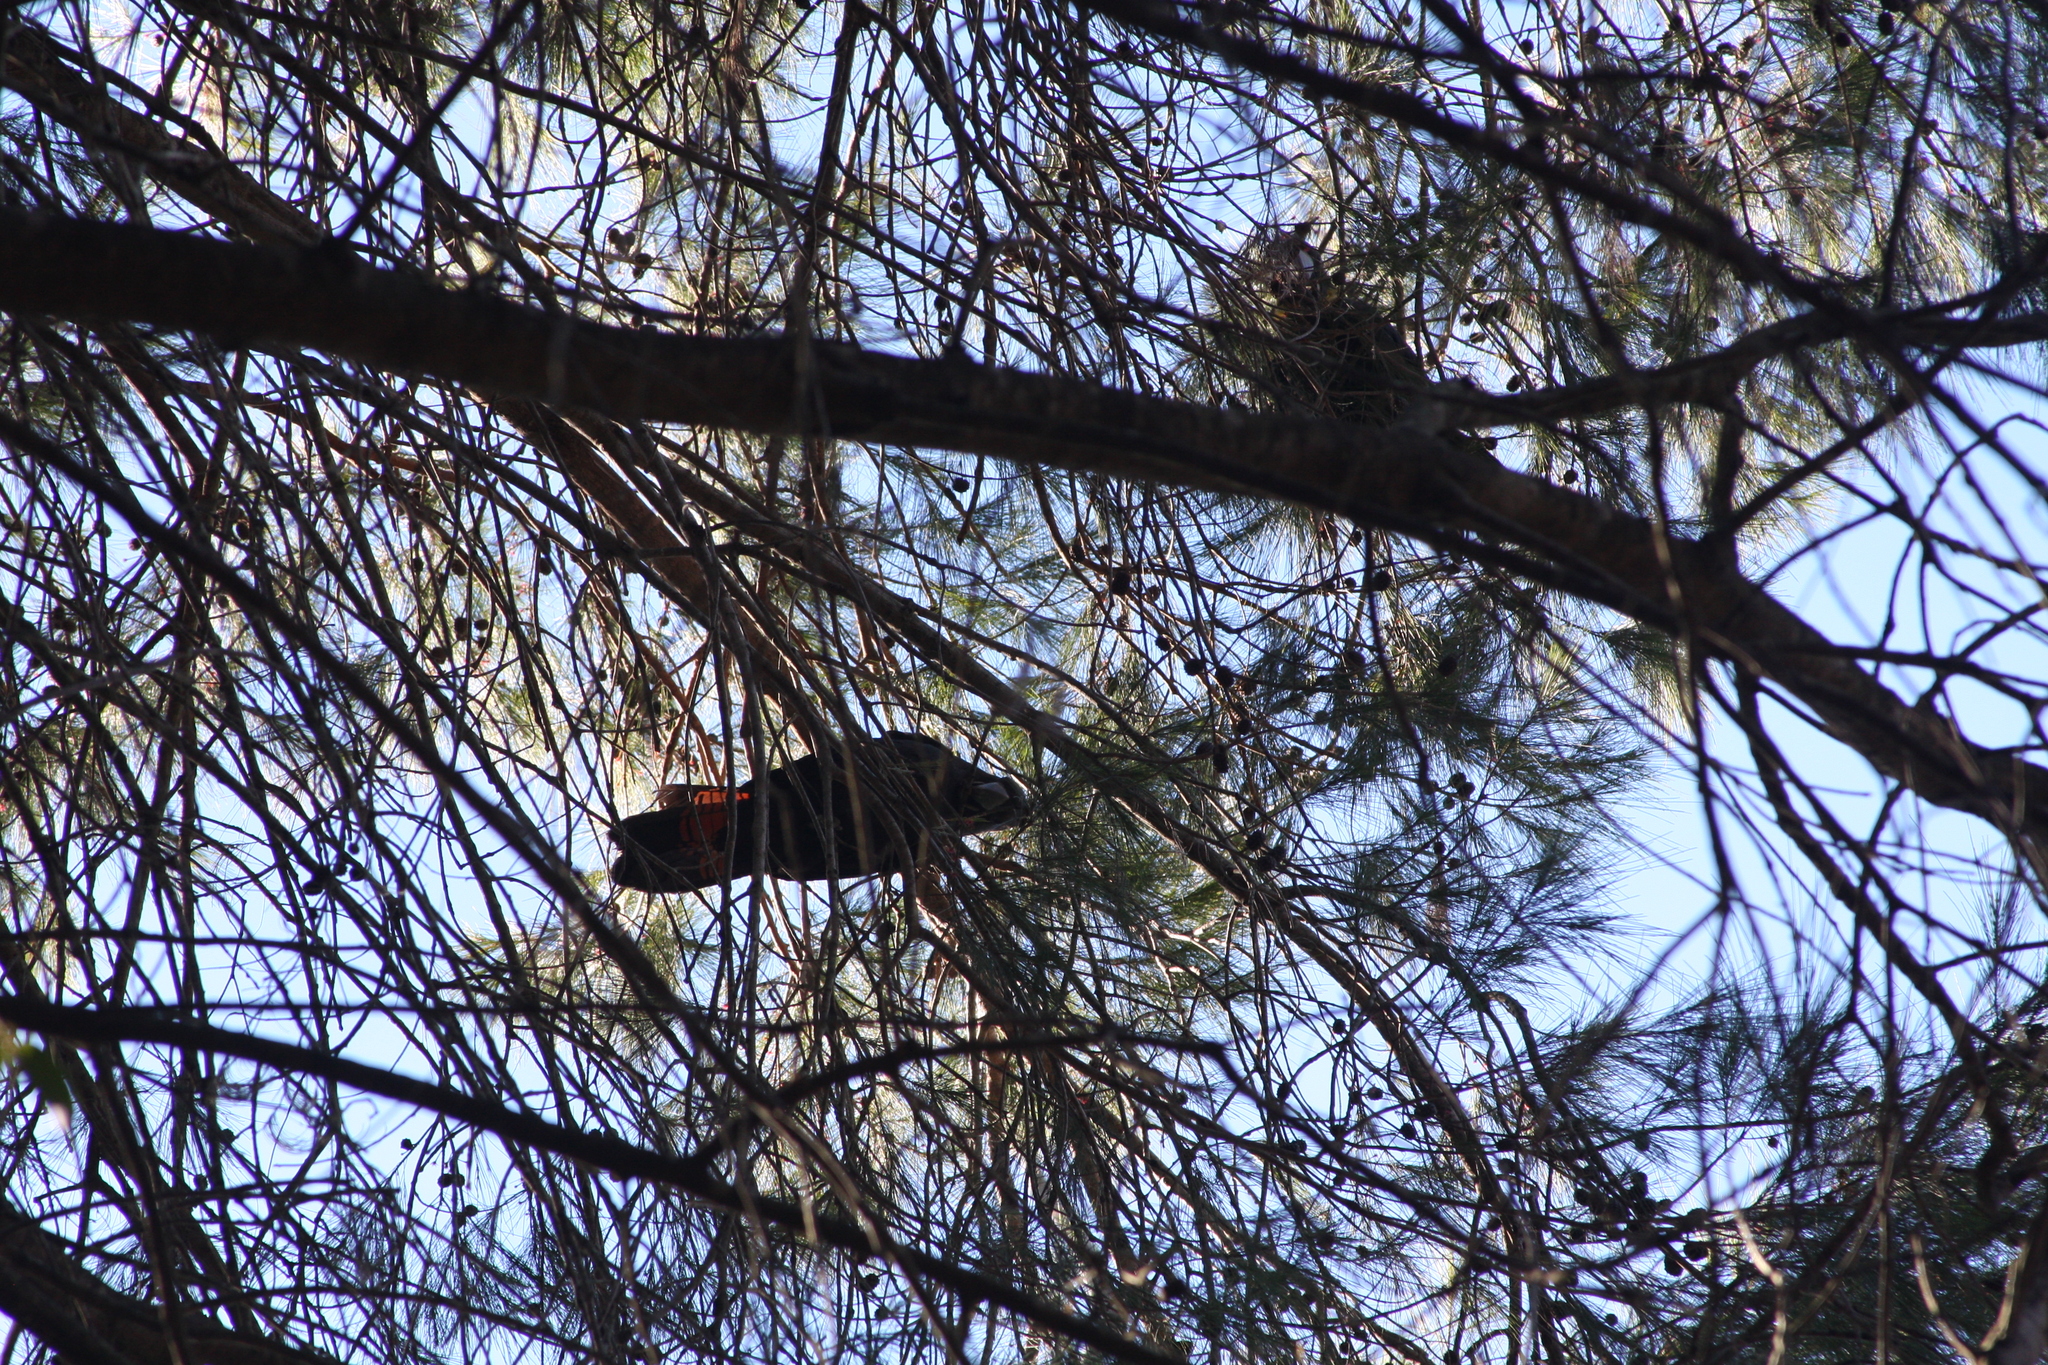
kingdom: Animalia
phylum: Chordata
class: Aves
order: Psittaciformes
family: Psittacidae
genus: Calyptorhynchus
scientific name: Calyptorhynchus lathami
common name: Glossy black cockatoo
